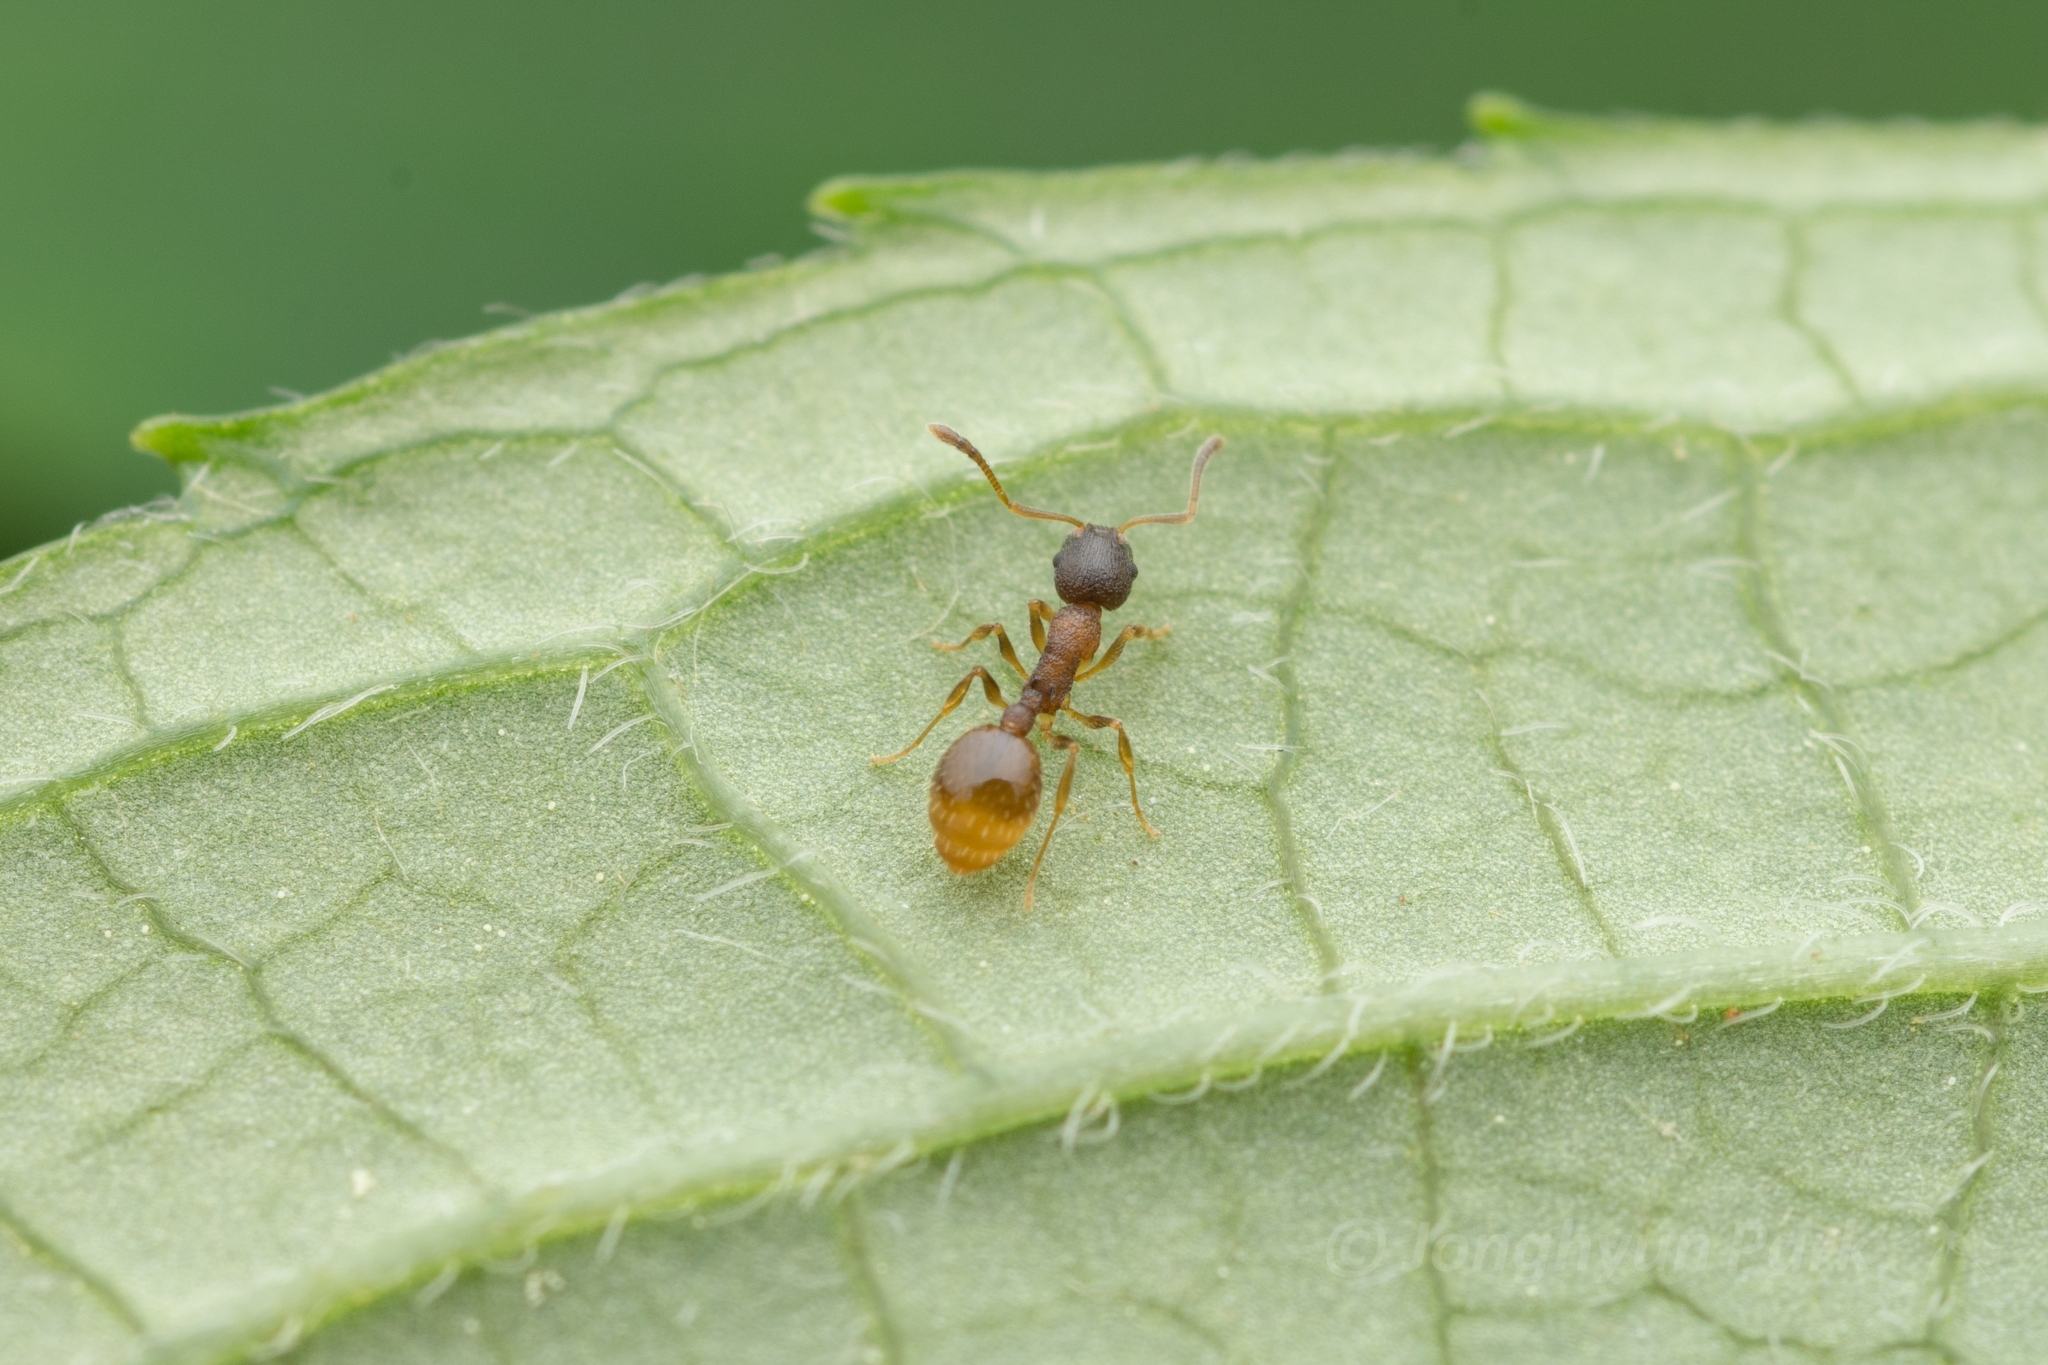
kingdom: Animalia
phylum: Arthropoda
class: Insecta
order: Hymenoptera
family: Formicidae
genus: Temnothorax
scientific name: Temnothorax
